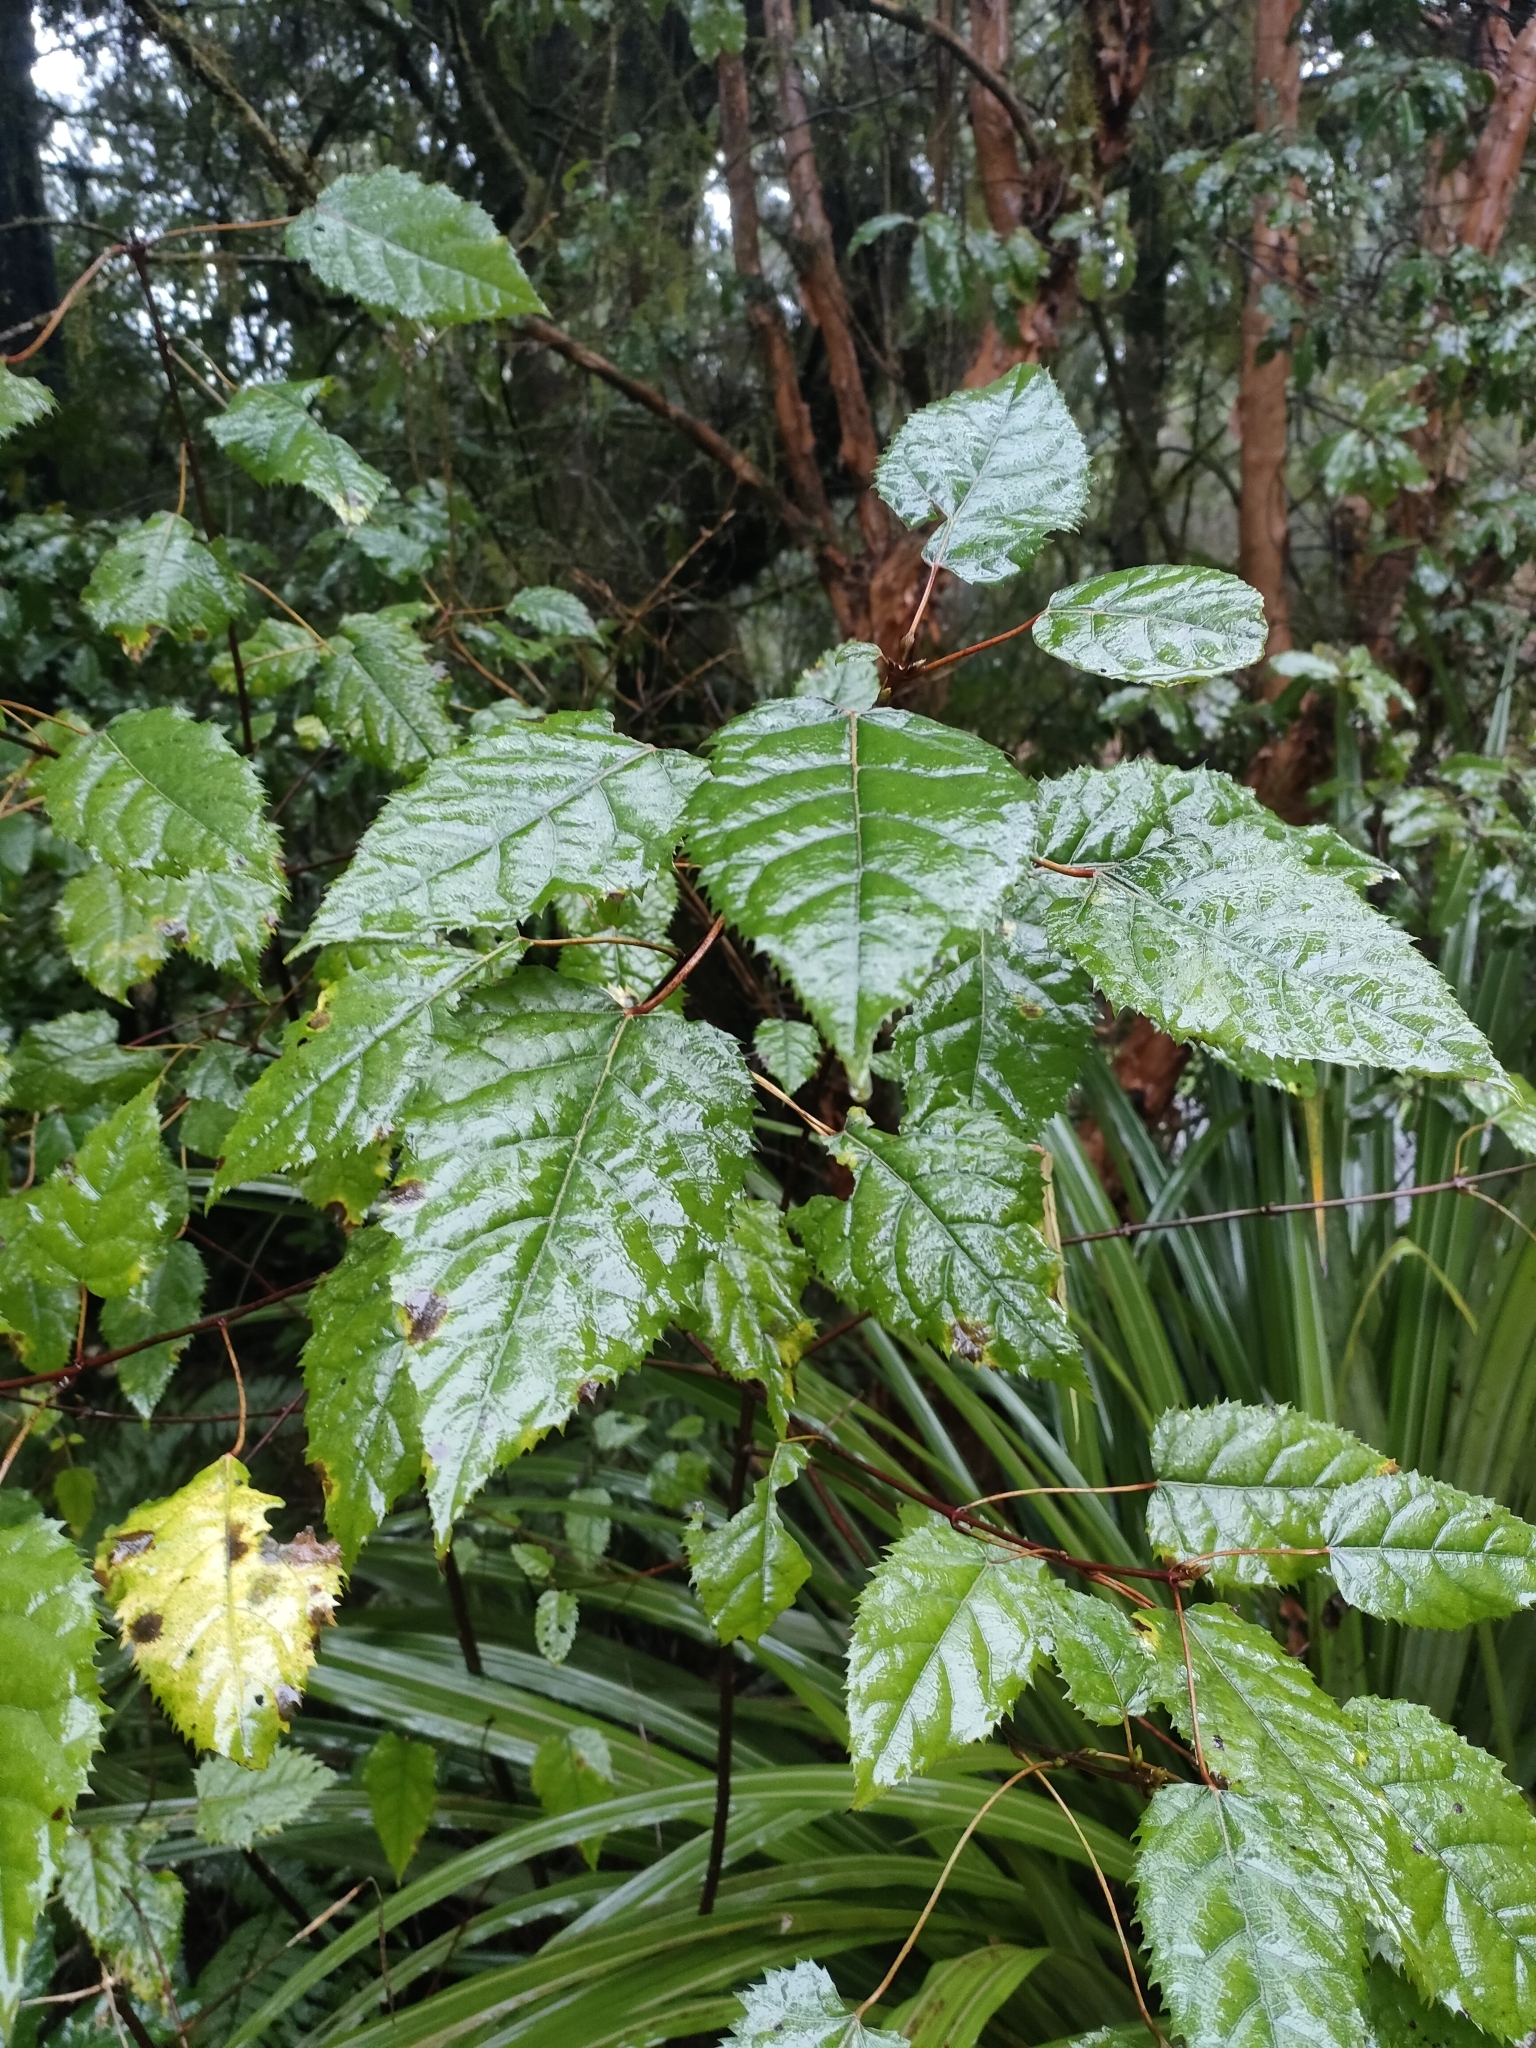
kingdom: Plantae
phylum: Tracheophyta
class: Magnoliopsida
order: Oxalidales
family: Elaeocarpaceae
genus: Aristotelia
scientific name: Aristotelia serrata
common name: New zealand wineberry
